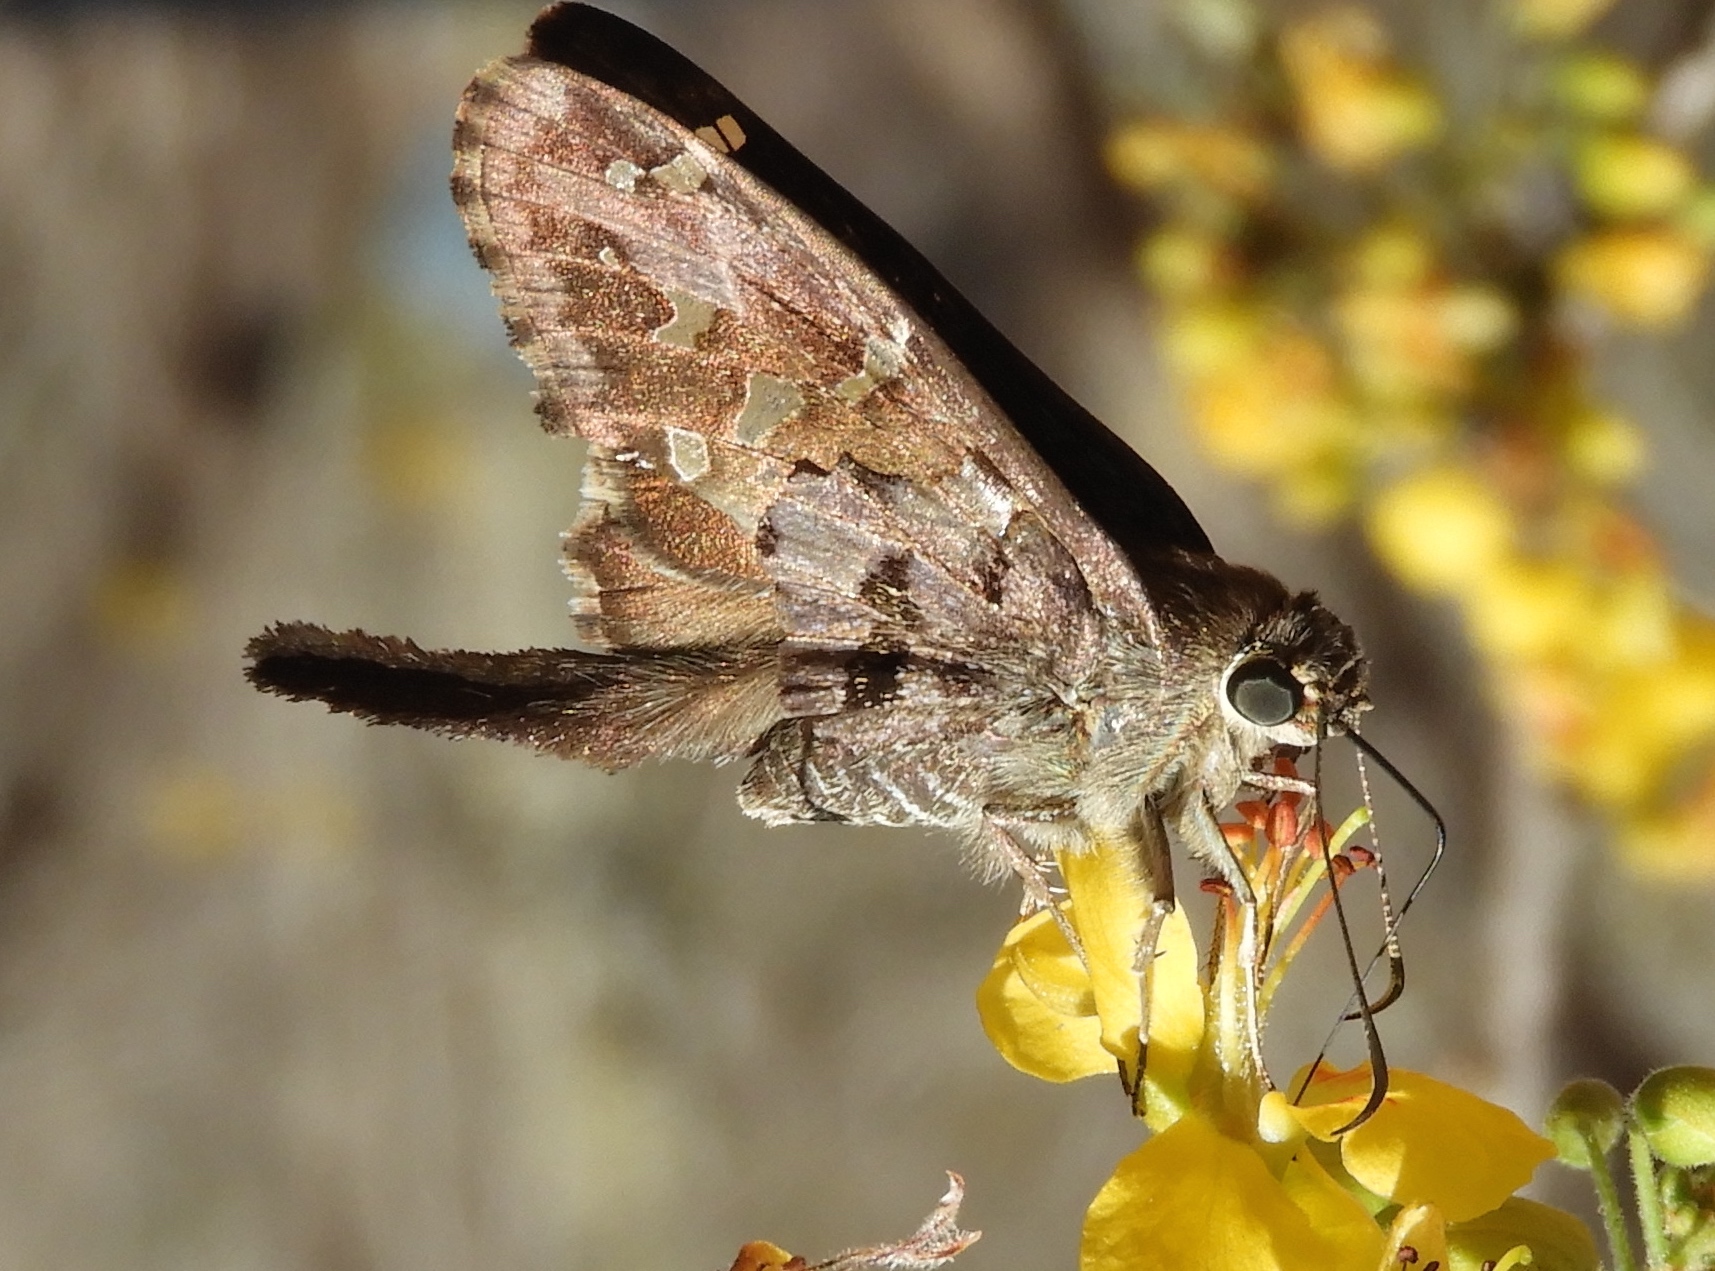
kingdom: Animalia
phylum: Arthropoda
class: Insecta
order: Lepidoptera
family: Hesperiidae
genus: Thorybes
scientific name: Thorybes
